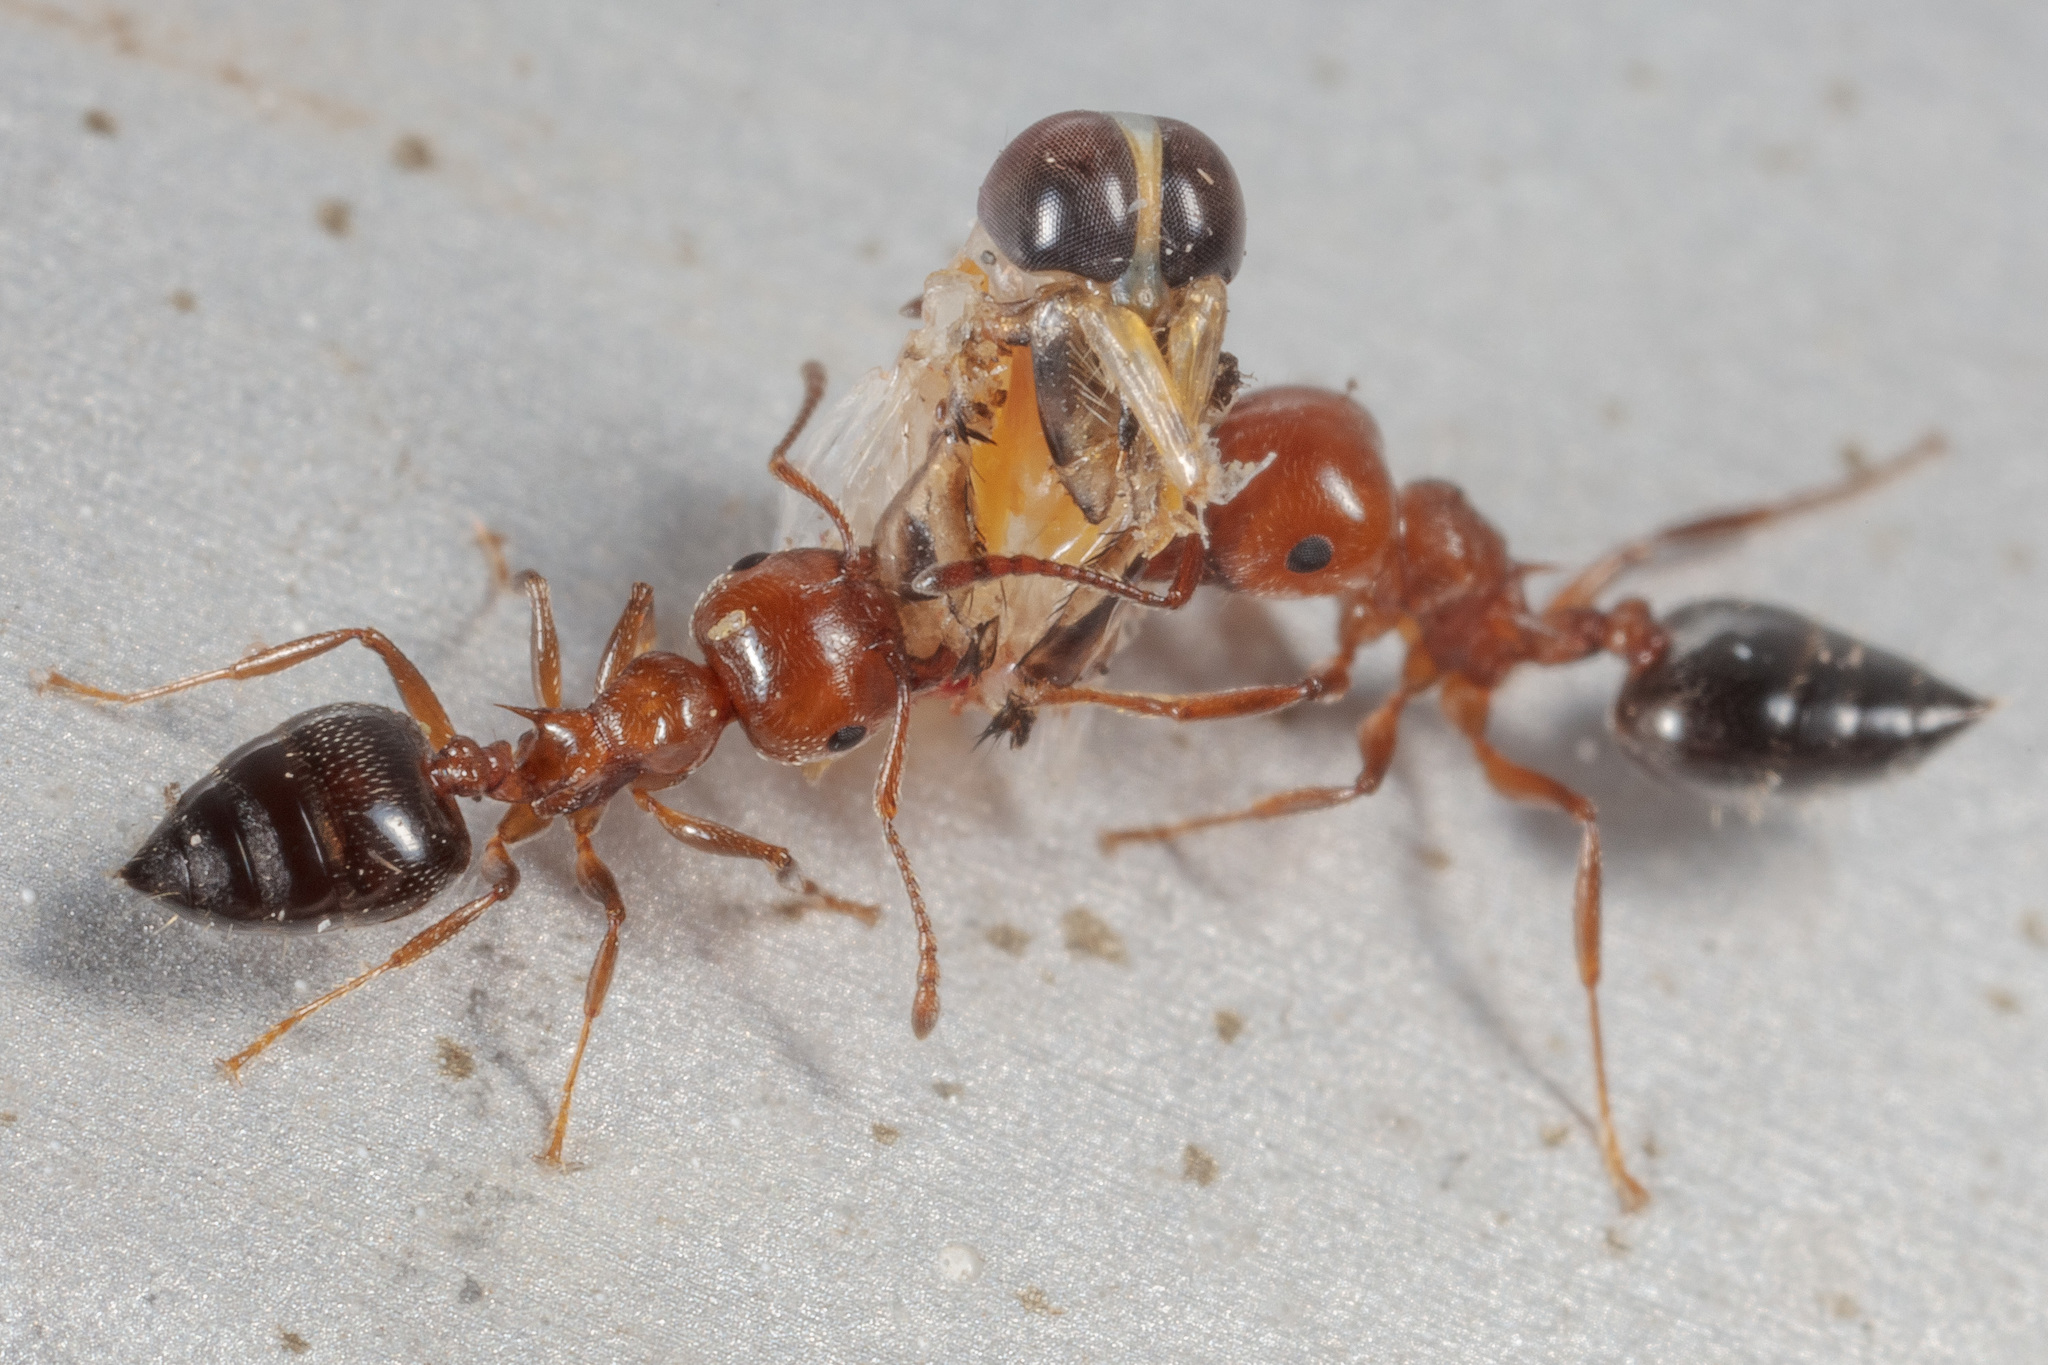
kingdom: Animalia
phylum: Arthropoda
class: Insecta
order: Hemiptera
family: Notonectidae
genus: Buenoa
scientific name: Buenoa
